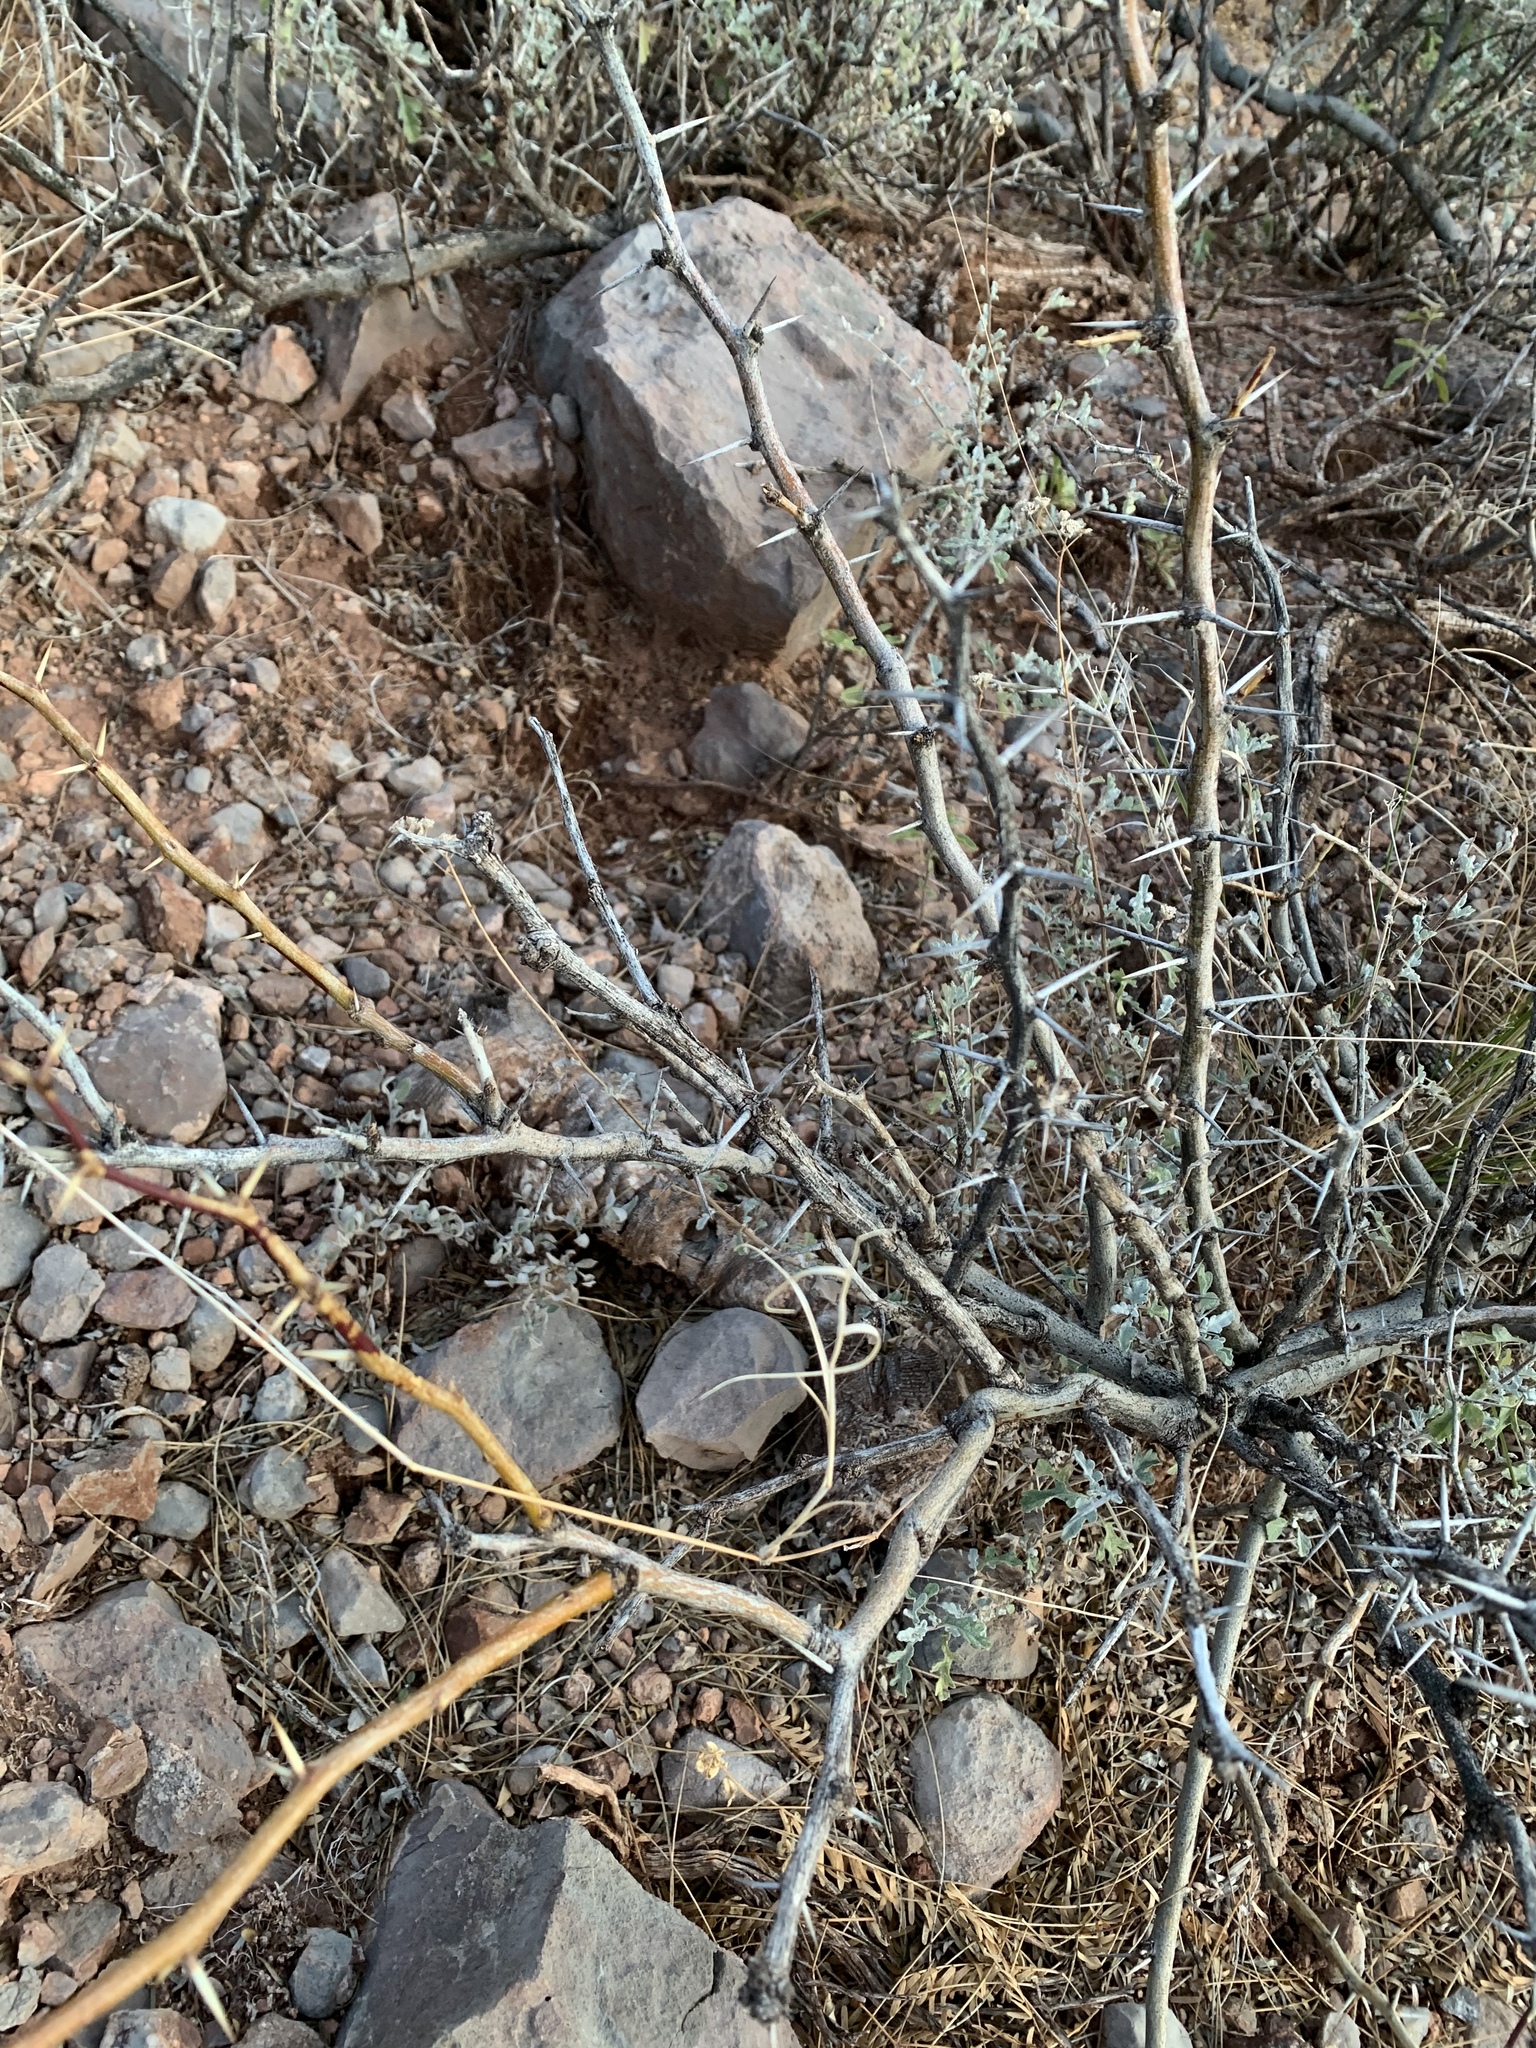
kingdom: Plantae
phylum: Tracheophyta
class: Magnoliopsida
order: Fabales
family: Fabaceae
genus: Prosopis
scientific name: Prosopis glandulosa
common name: Honey mesquite
